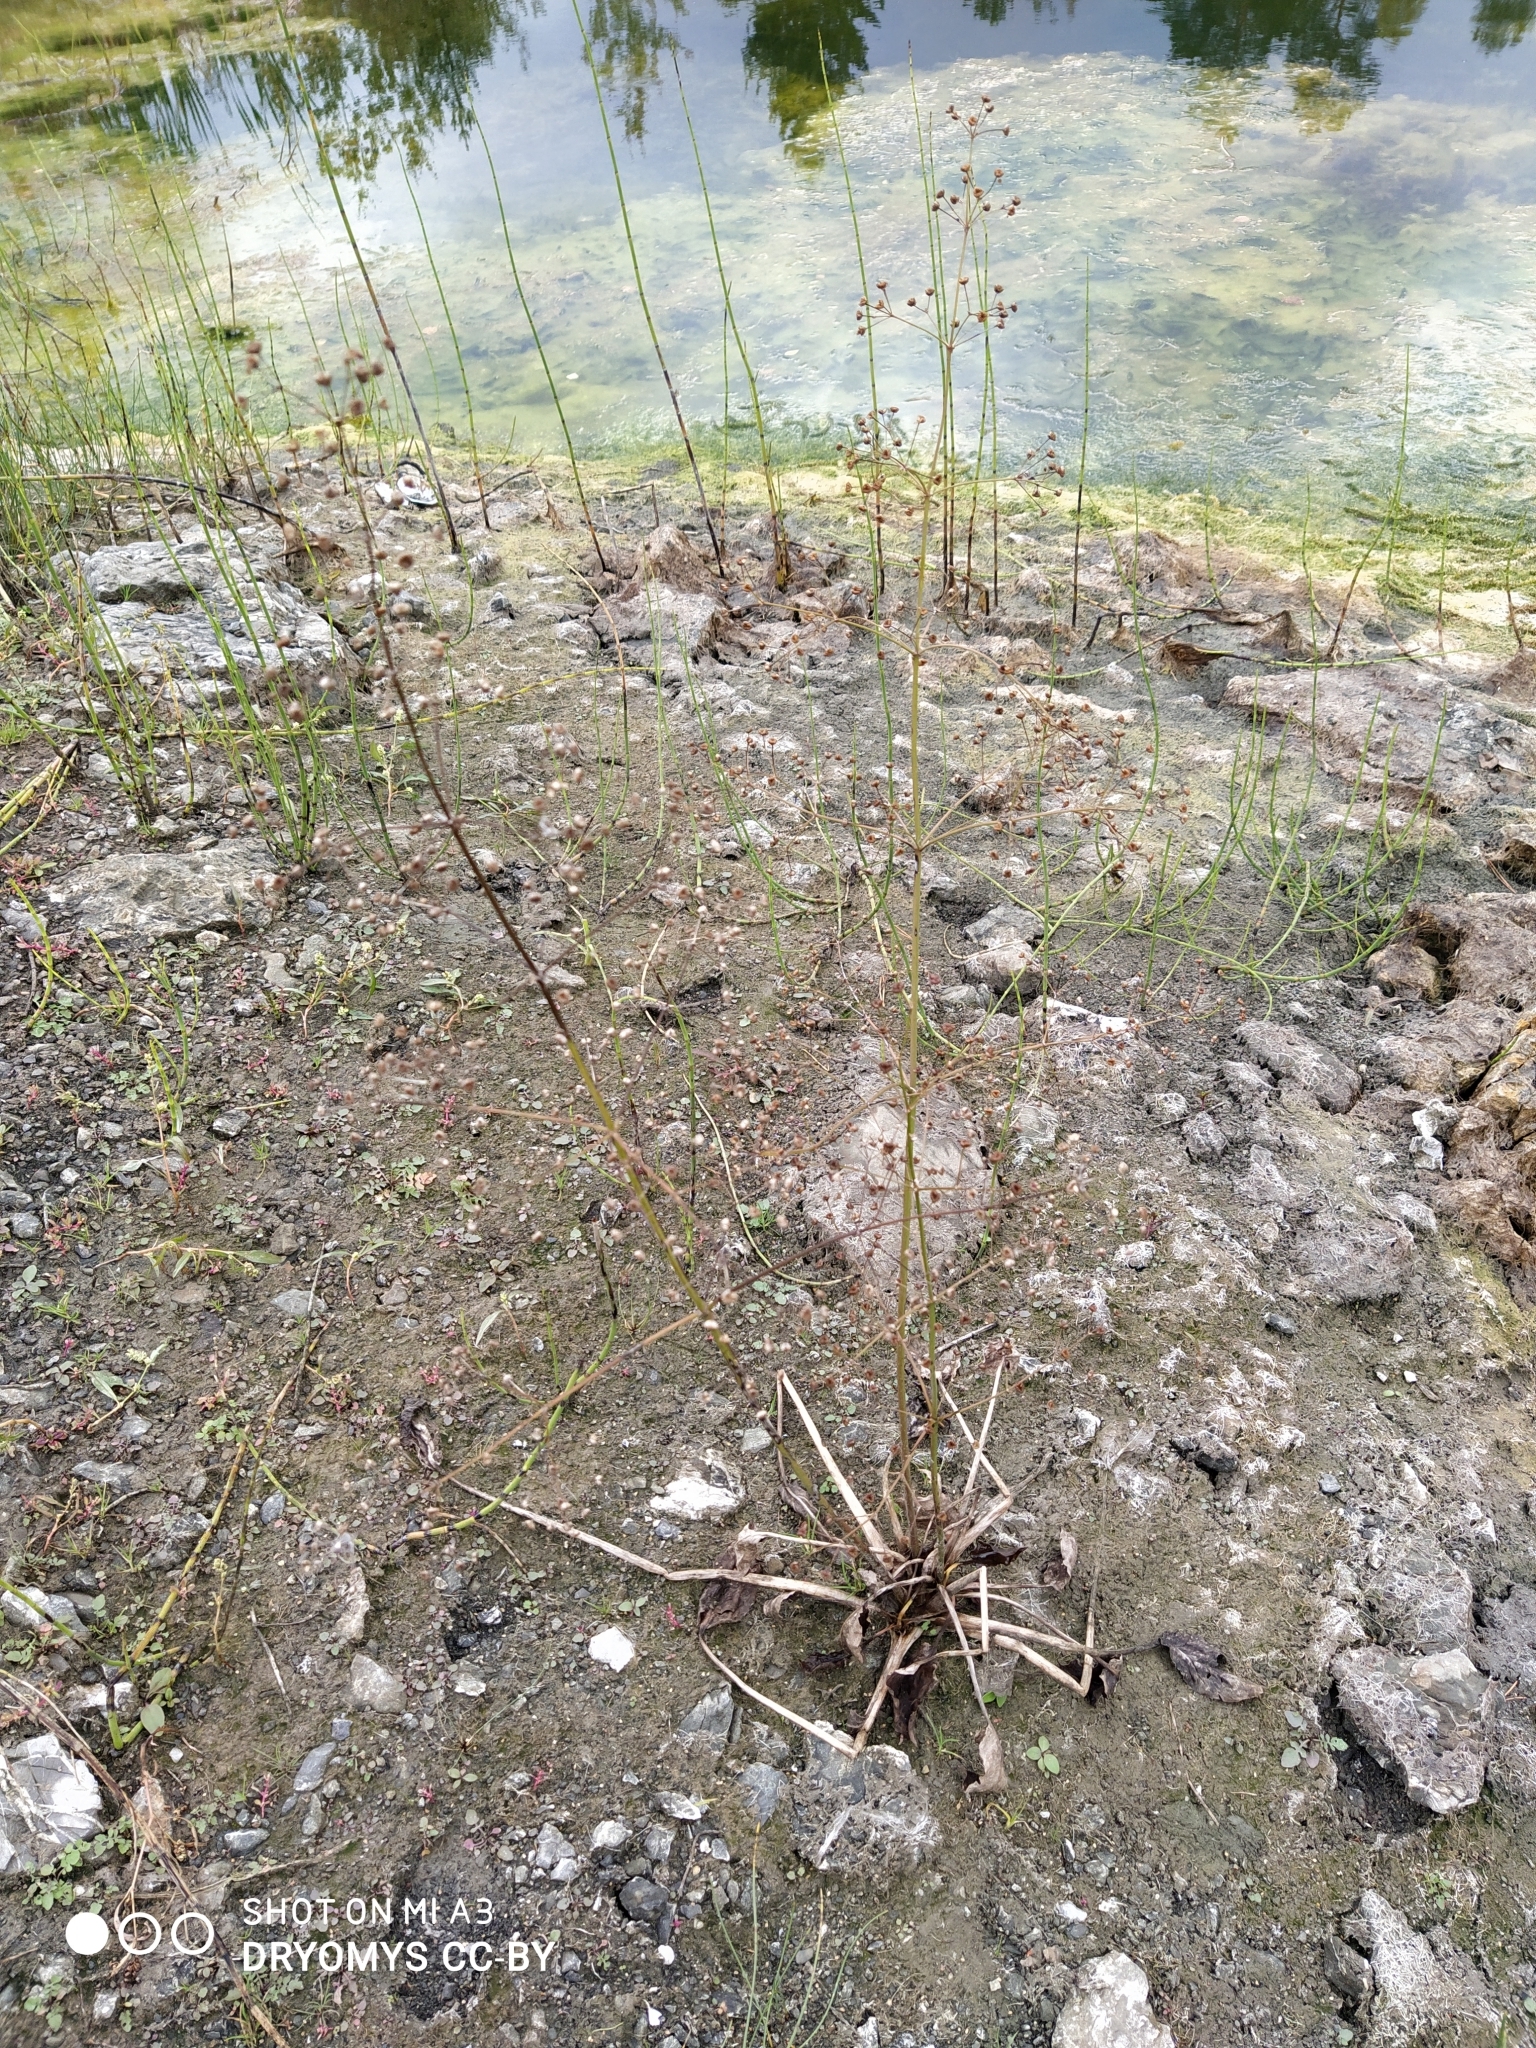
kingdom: Plantae
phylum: Tracheophyta
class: Liliopsida
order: Alismatales
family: Alismataceae
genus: Alisma
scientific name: Alisma plantago-aquatica
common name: Water-plantain
